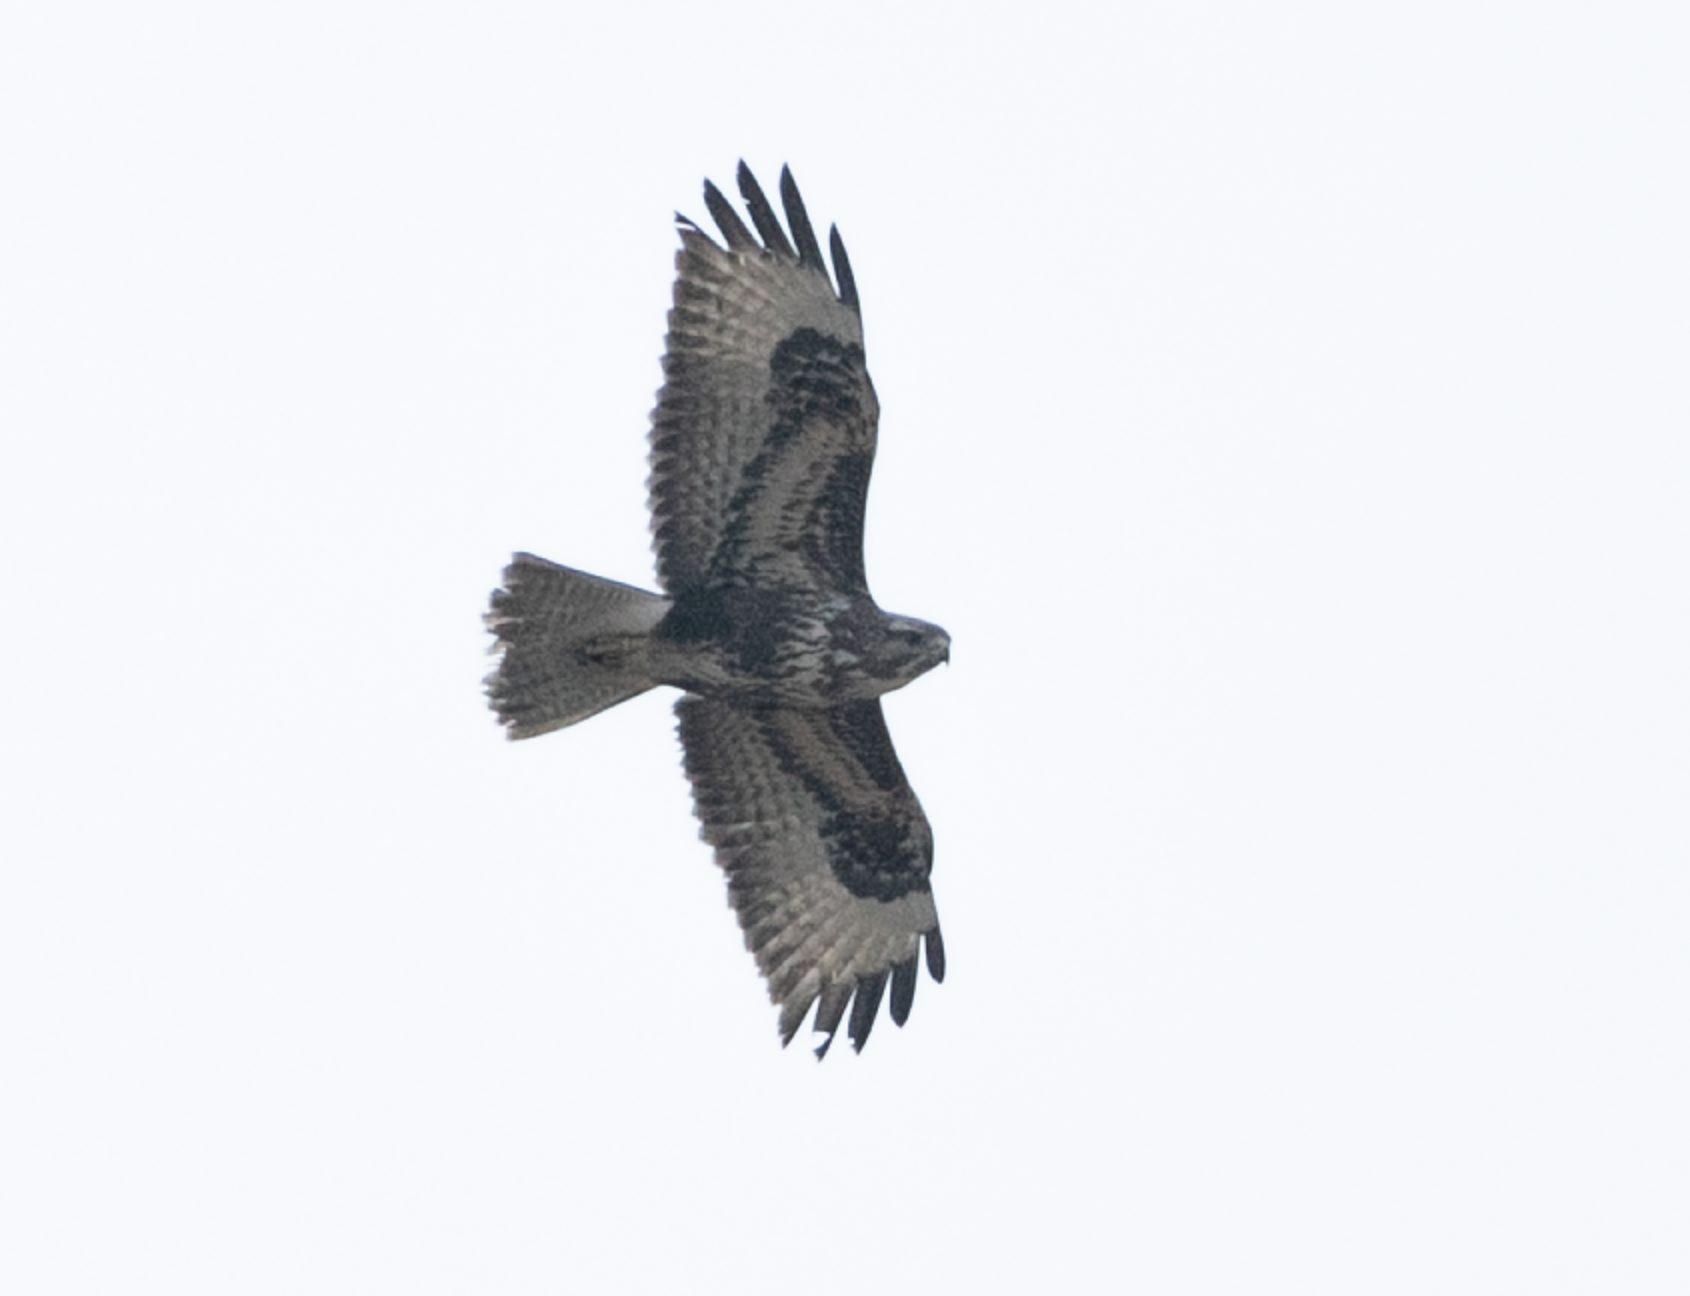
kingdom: Animalia
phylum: Chordata
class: Aves
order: Accipitriformes
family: Accipitridae
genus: Buteo
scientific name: Buteo buteo
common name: Common buzzard
